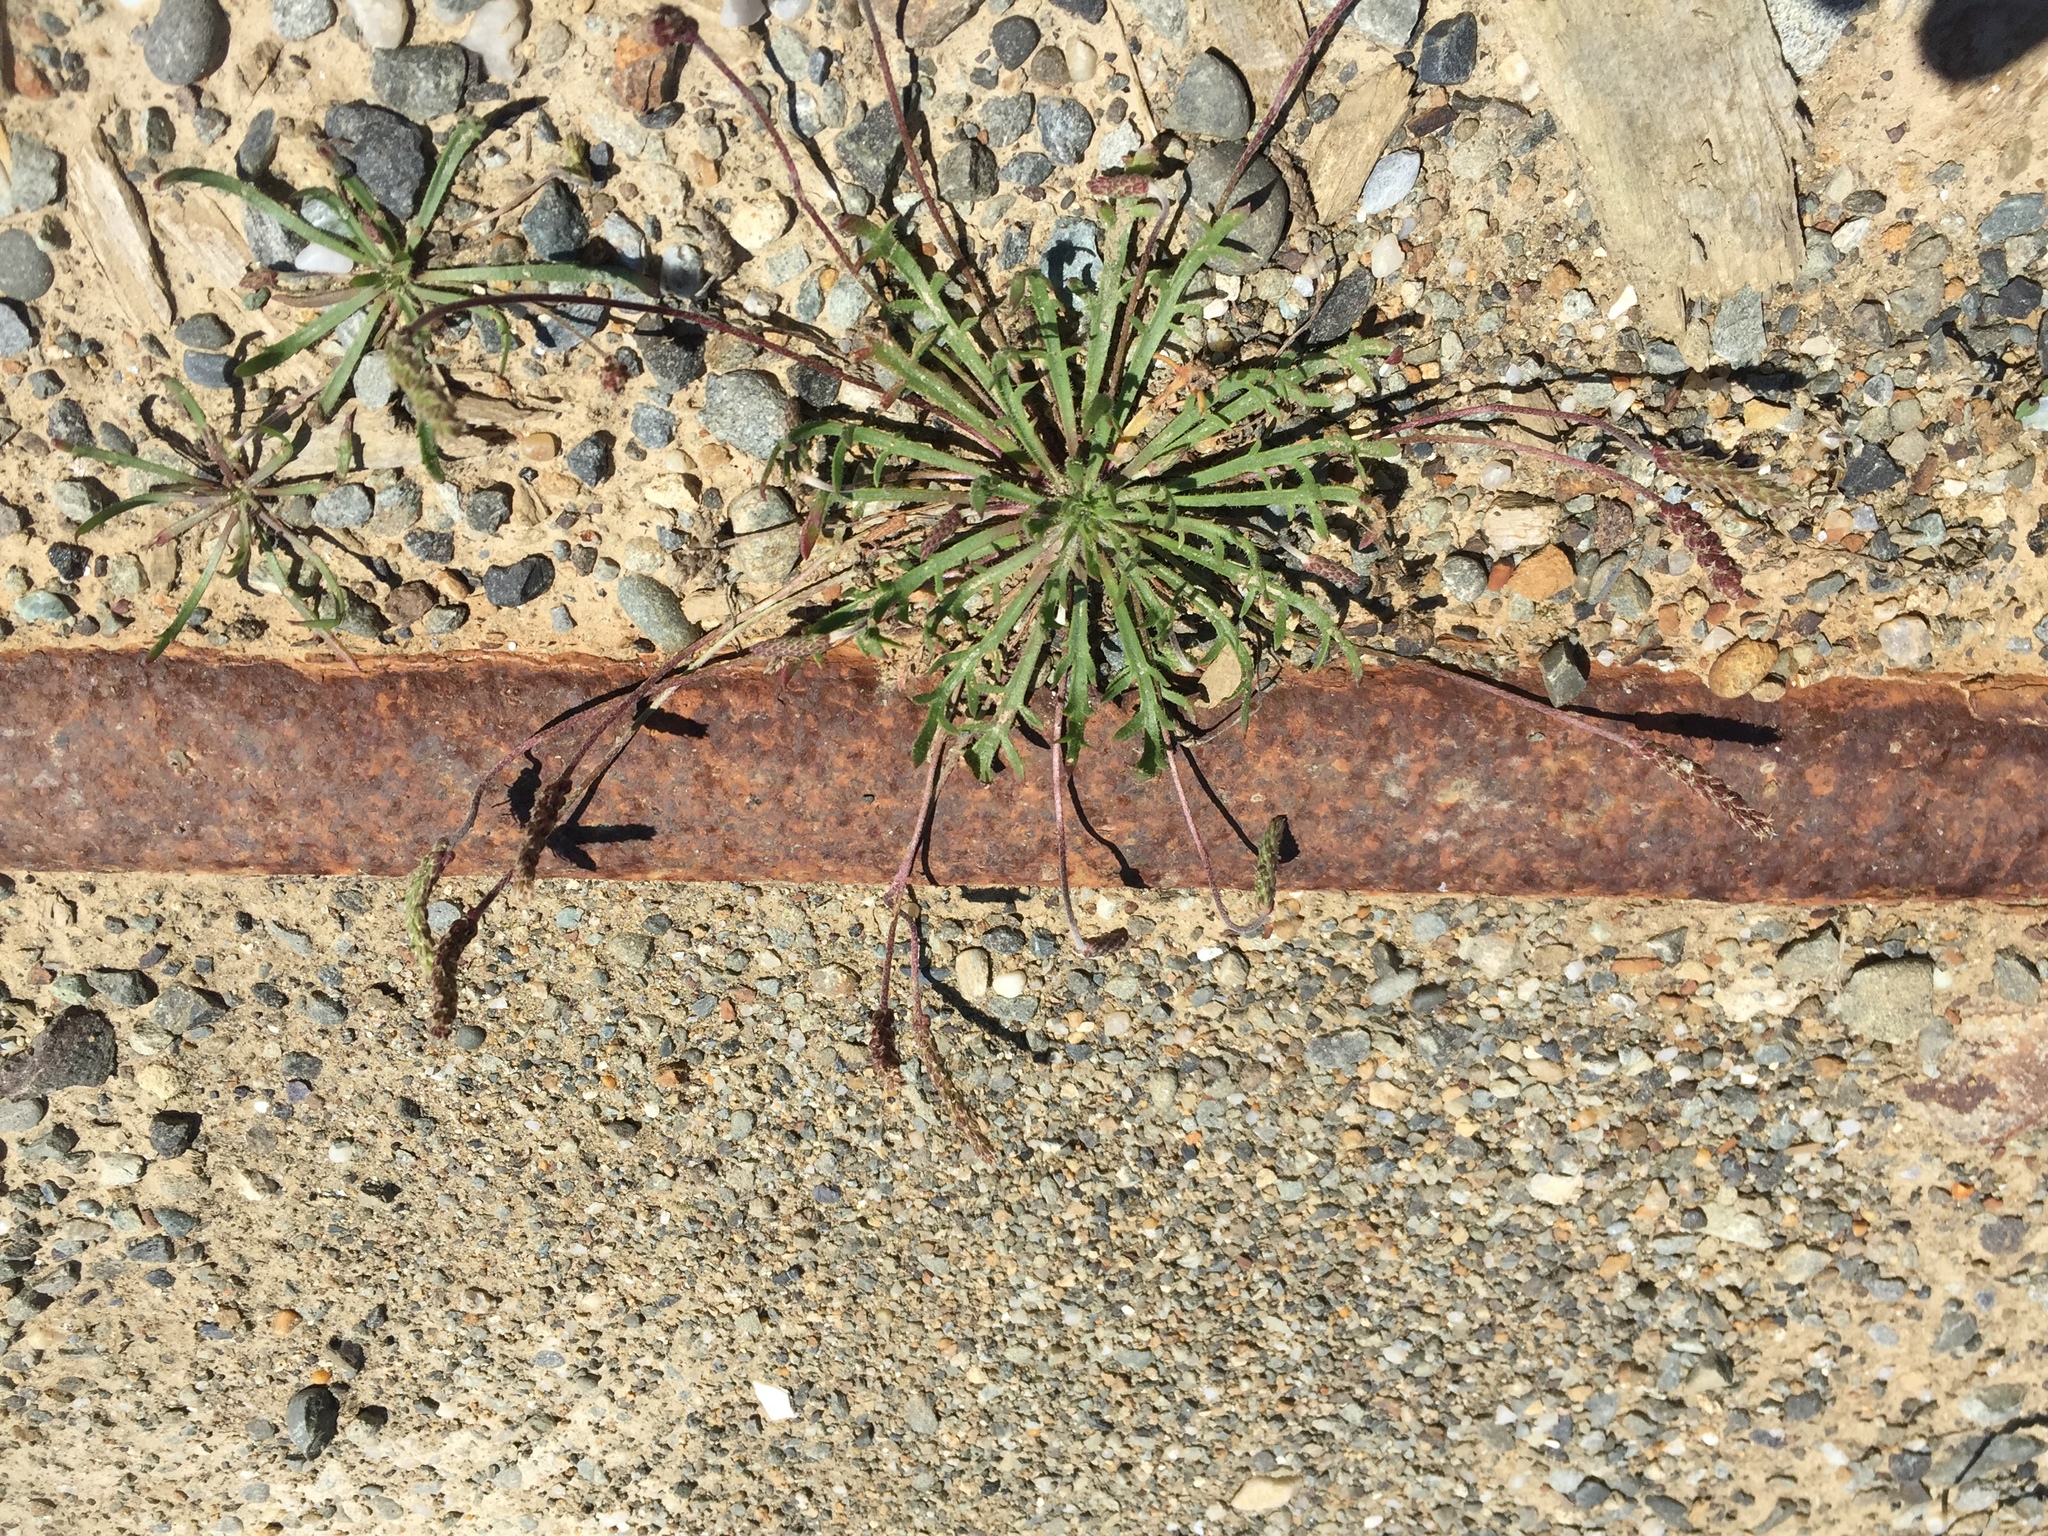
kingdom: Plantae
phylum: Tracheophyta
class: Magnoliopsida
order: Lamiales
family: Plantaginaceae
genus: Plantago
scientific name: Plantago coronopus
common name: Buck's-horn plantain
